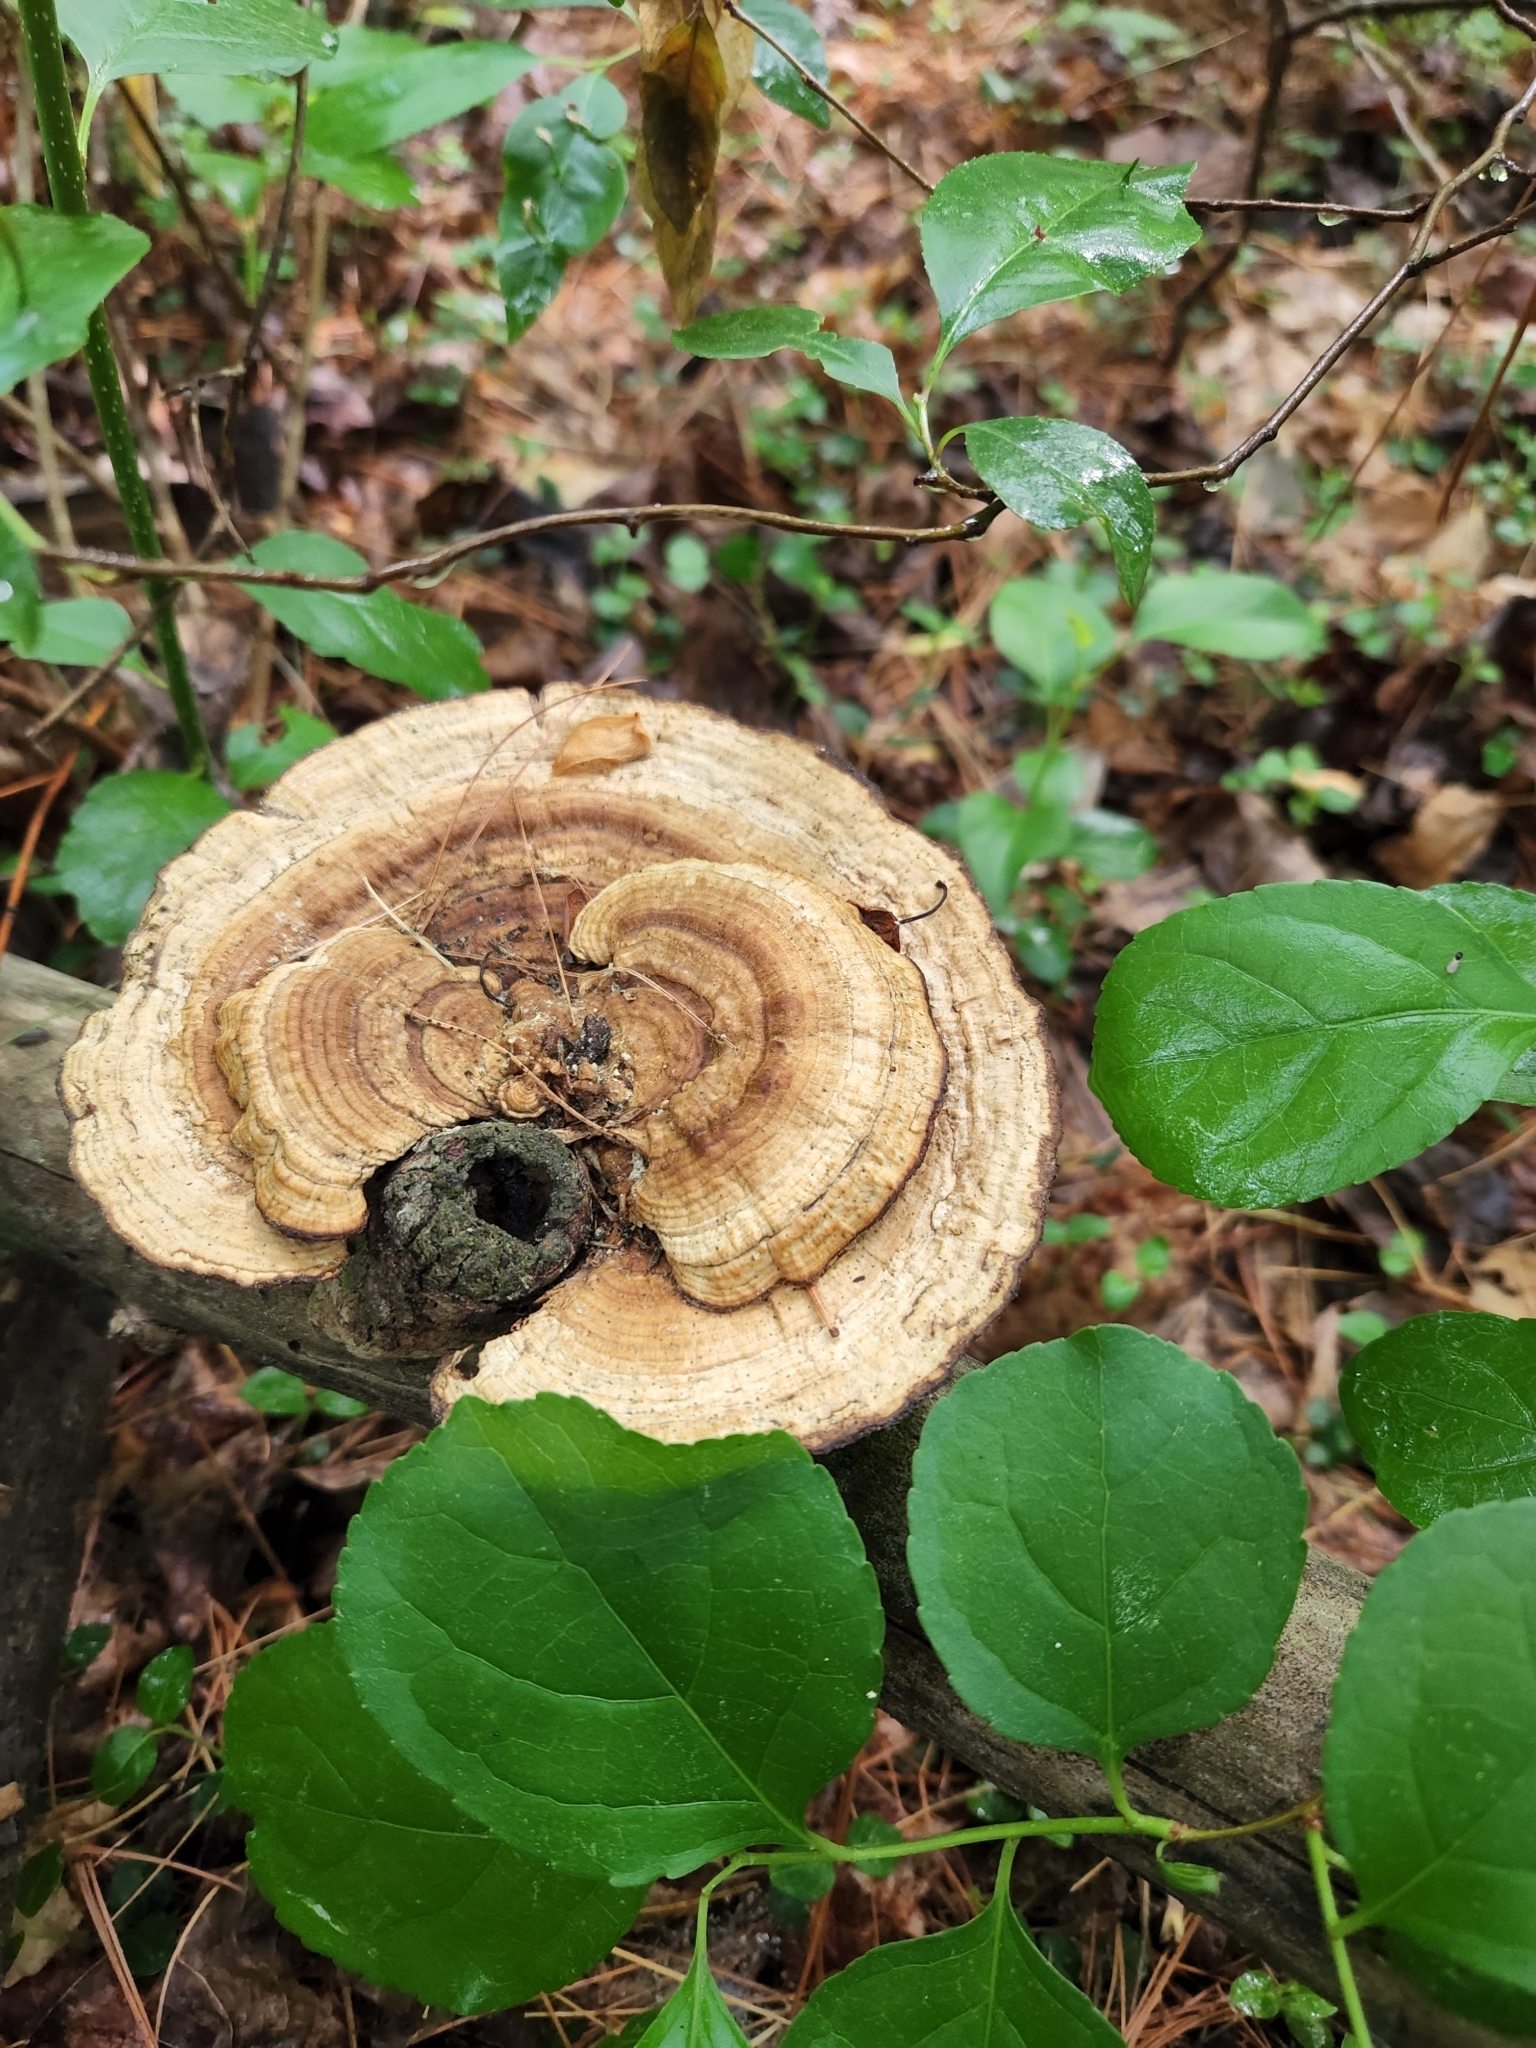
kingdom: Fungi
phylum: Basidiomycota
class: Agaricomycetes
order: Polyporales
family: Polyporaceae
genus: Daedaleopsis
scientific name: Daedaleopsis confragosa
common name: Blushing bracket
